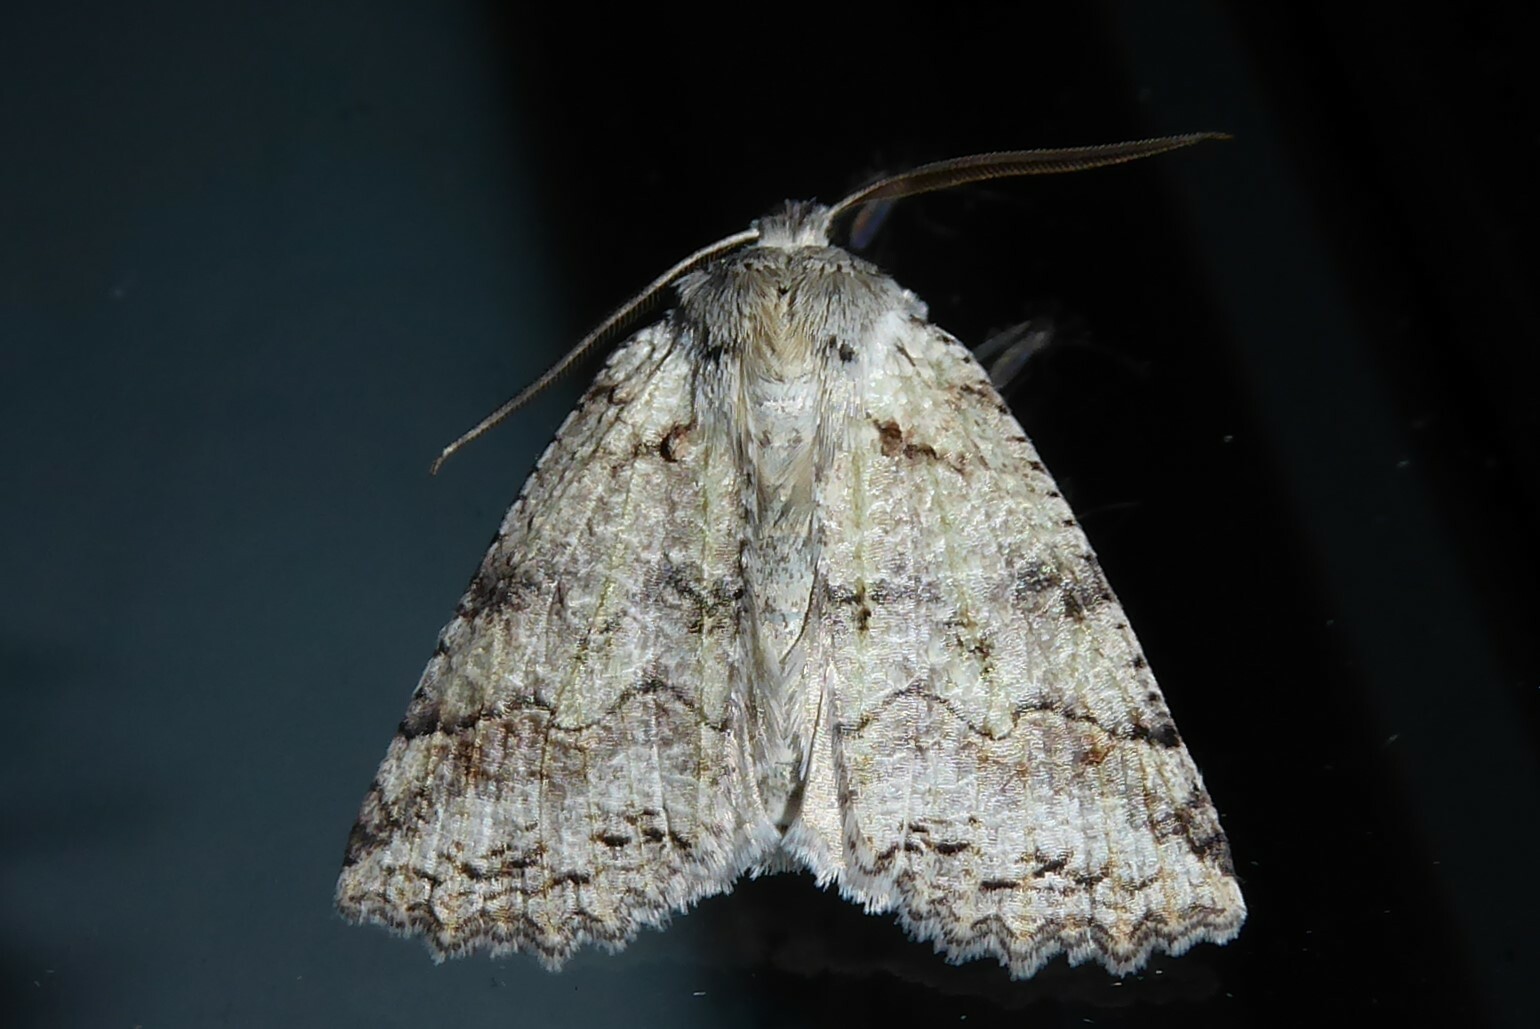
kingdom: Animalia
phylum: Arthropoda
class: Insecta
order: Lepidoptera
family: Geometridae
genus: Declana
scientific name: Declana floccosa
